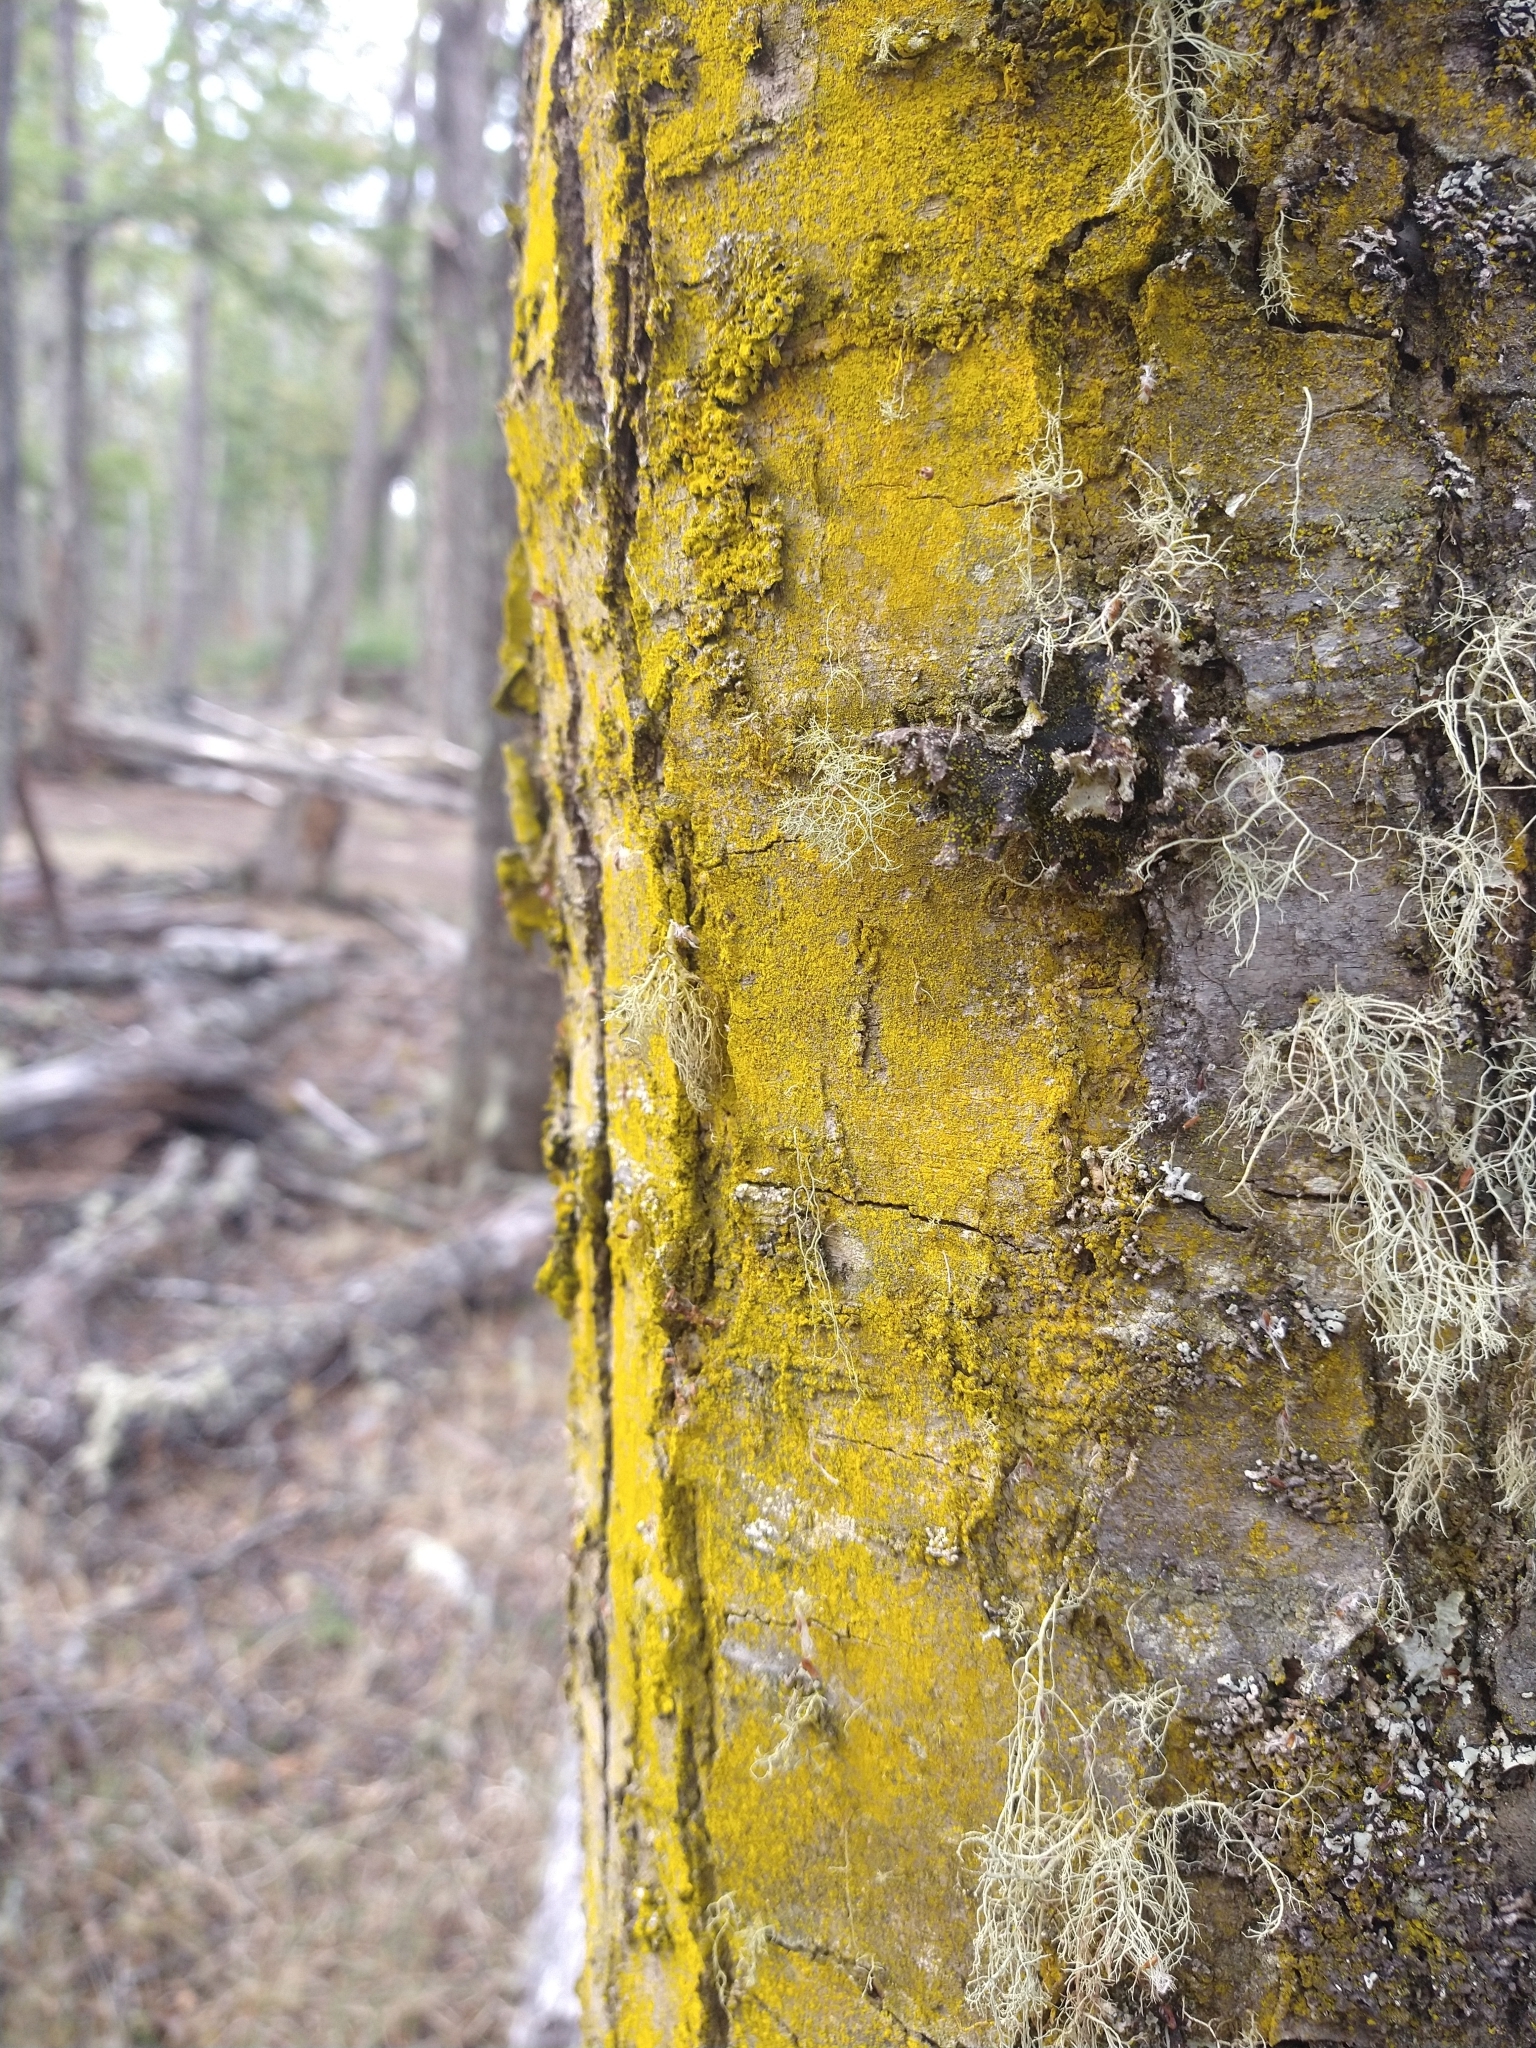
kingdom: Fungi
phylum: Ascomycota
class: Arthoniomycetes
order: Arthoniales
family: Chrysotrichaceae
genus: Chrysothrix
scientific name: Chrysothrix candelaris
